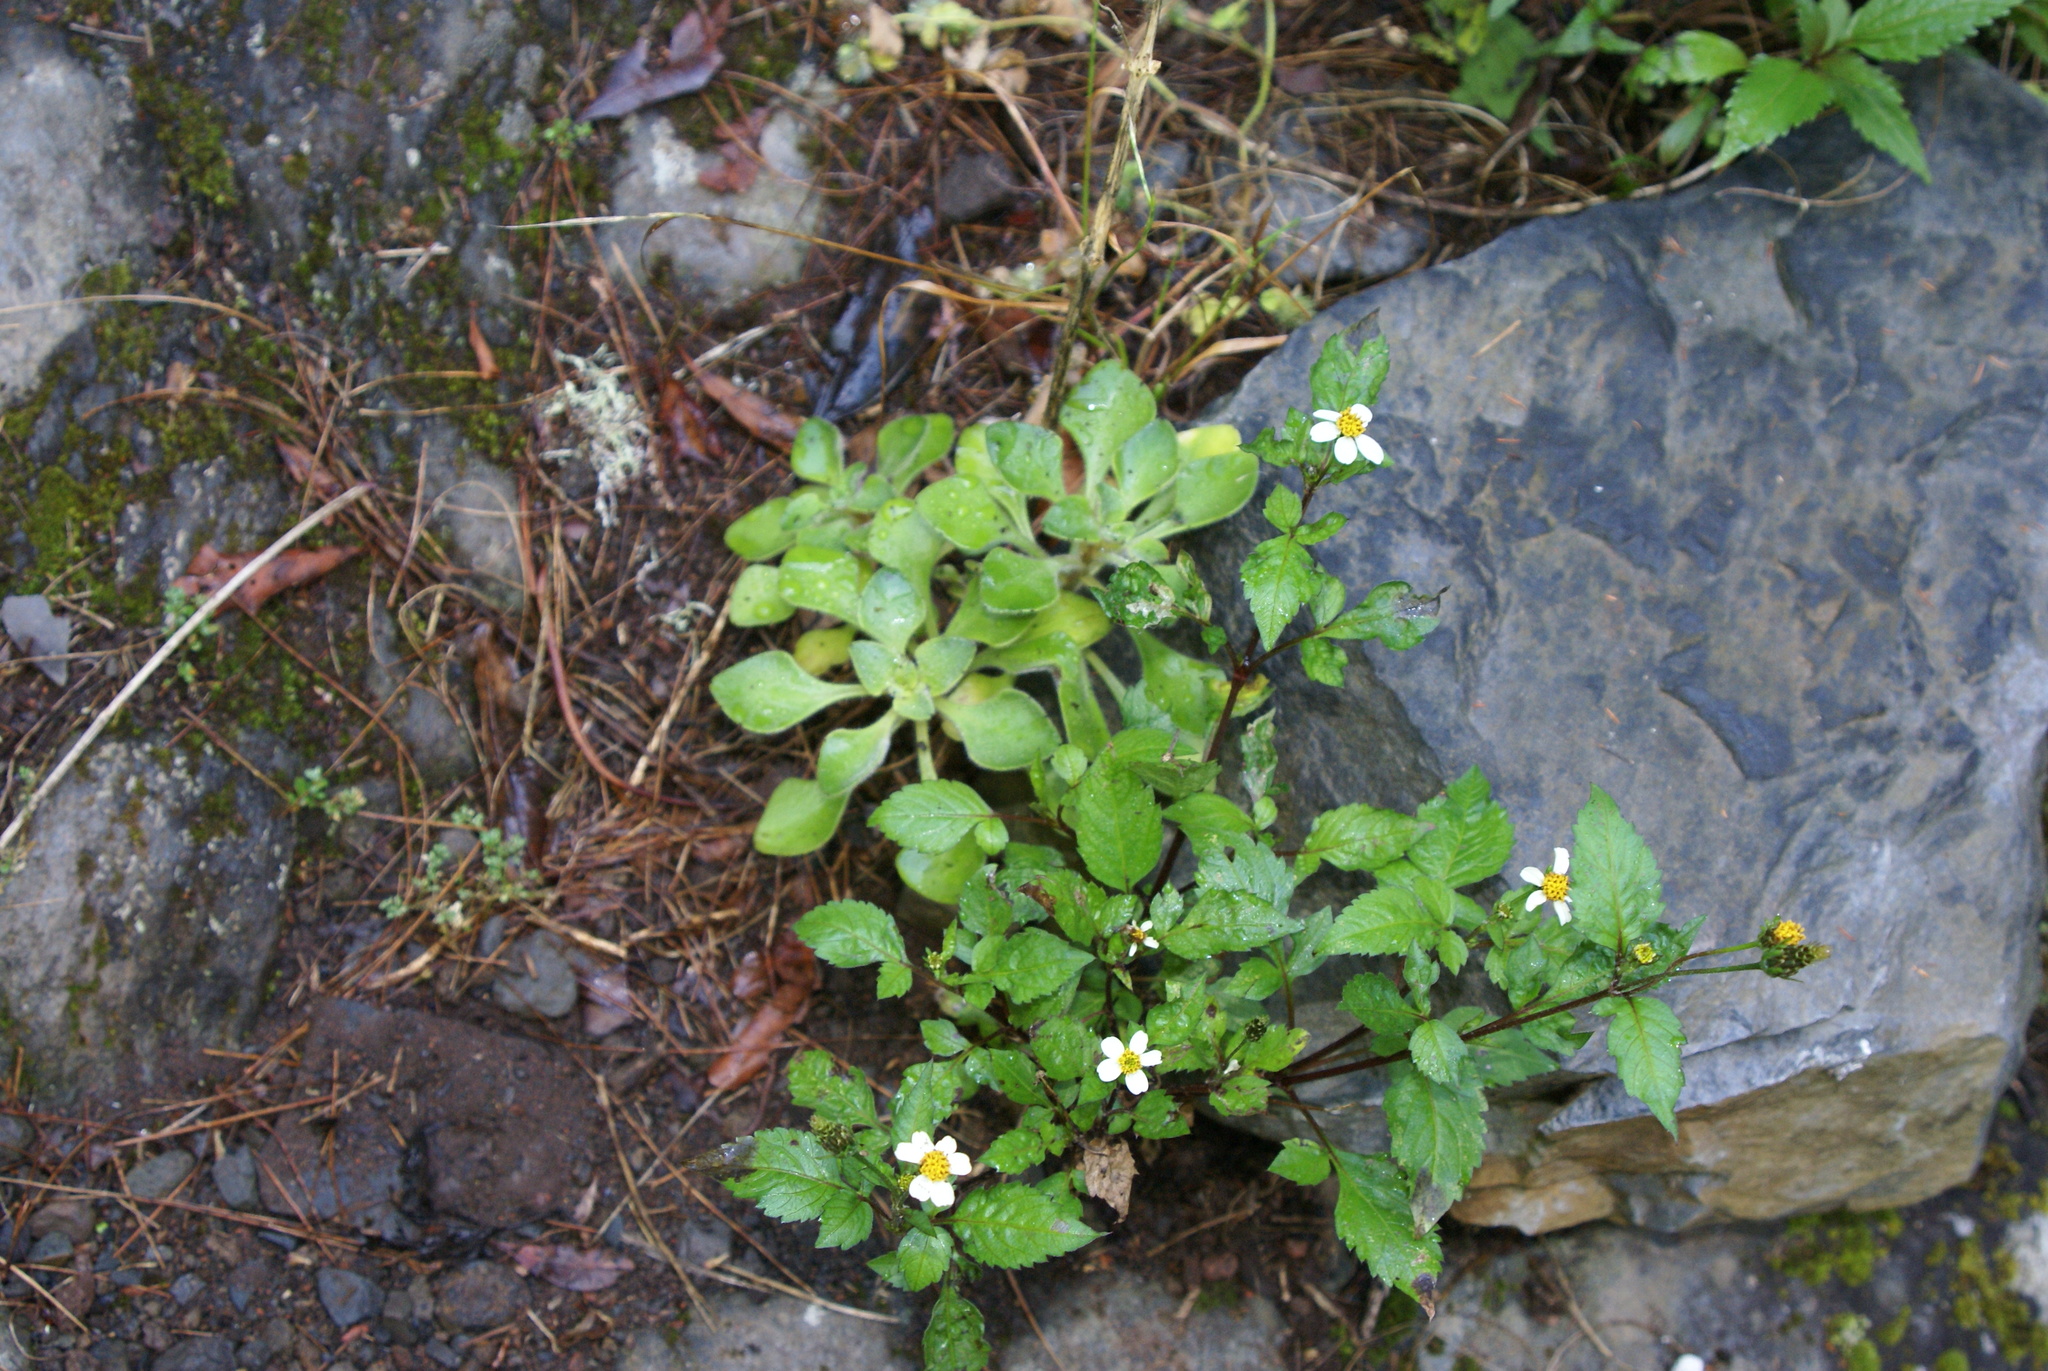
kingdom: Plantae
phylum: Tracheophyta
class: Magnoliopsida
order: Asterales
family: Asteraceae
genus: Bidens
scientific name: Bidens pilosa
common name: Black-jack
